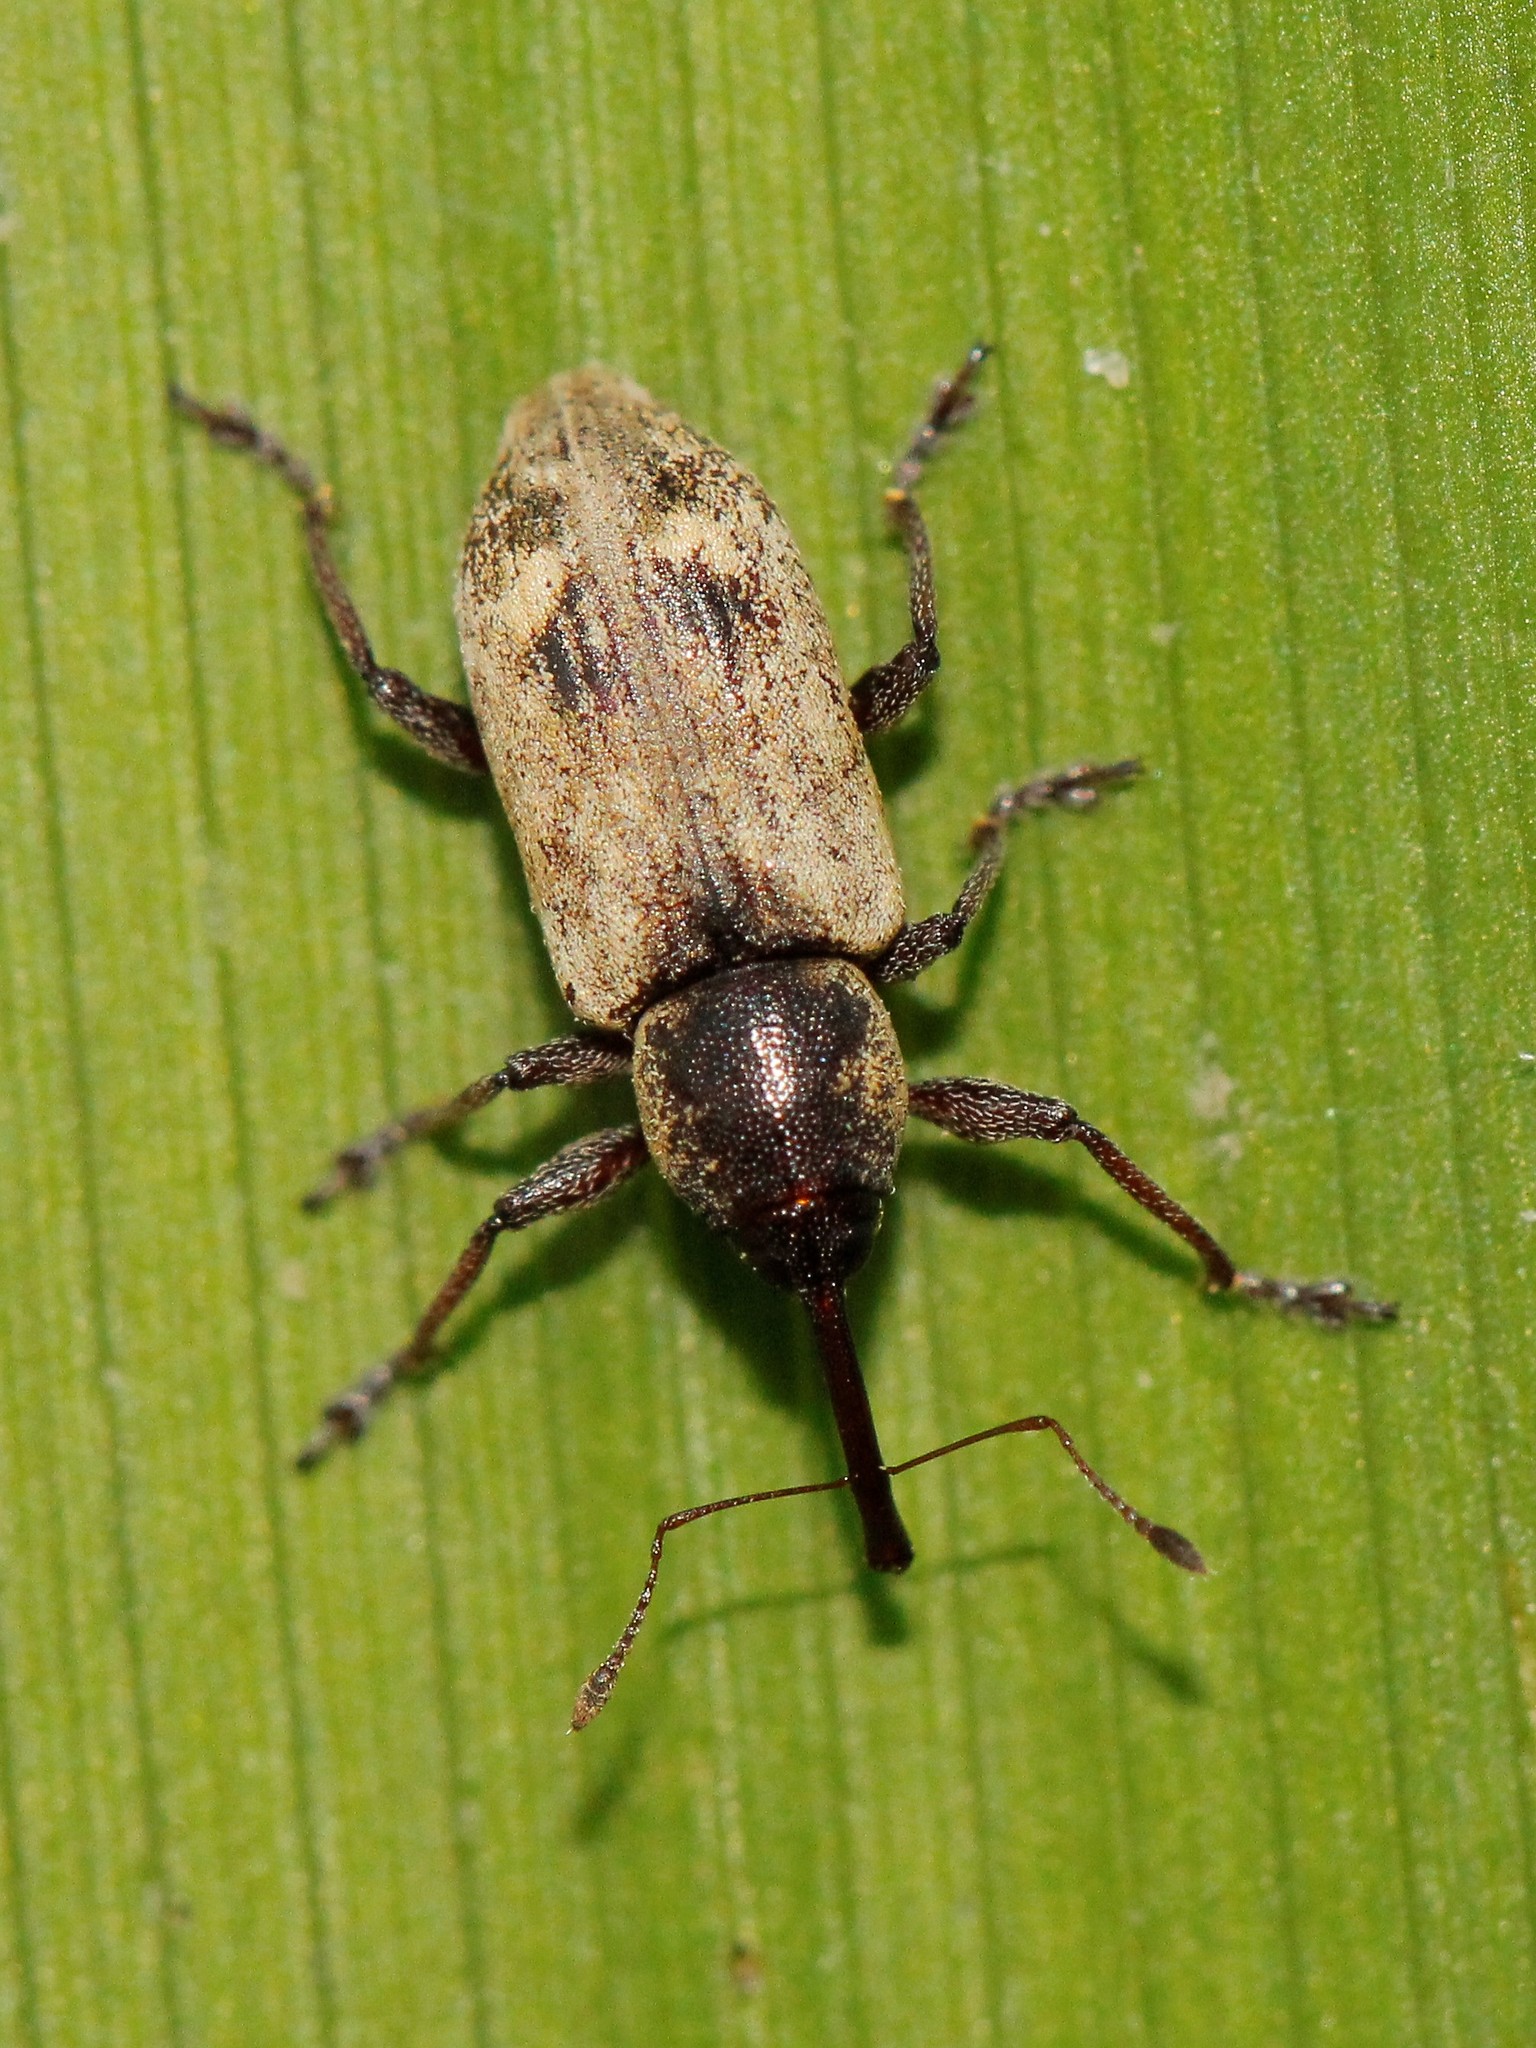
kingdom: Animalia
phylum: Arthropoda
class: Insecta
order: Coleoptera
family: Brachyceridae
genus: Thryogenes
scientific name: Thryogenes festucae
